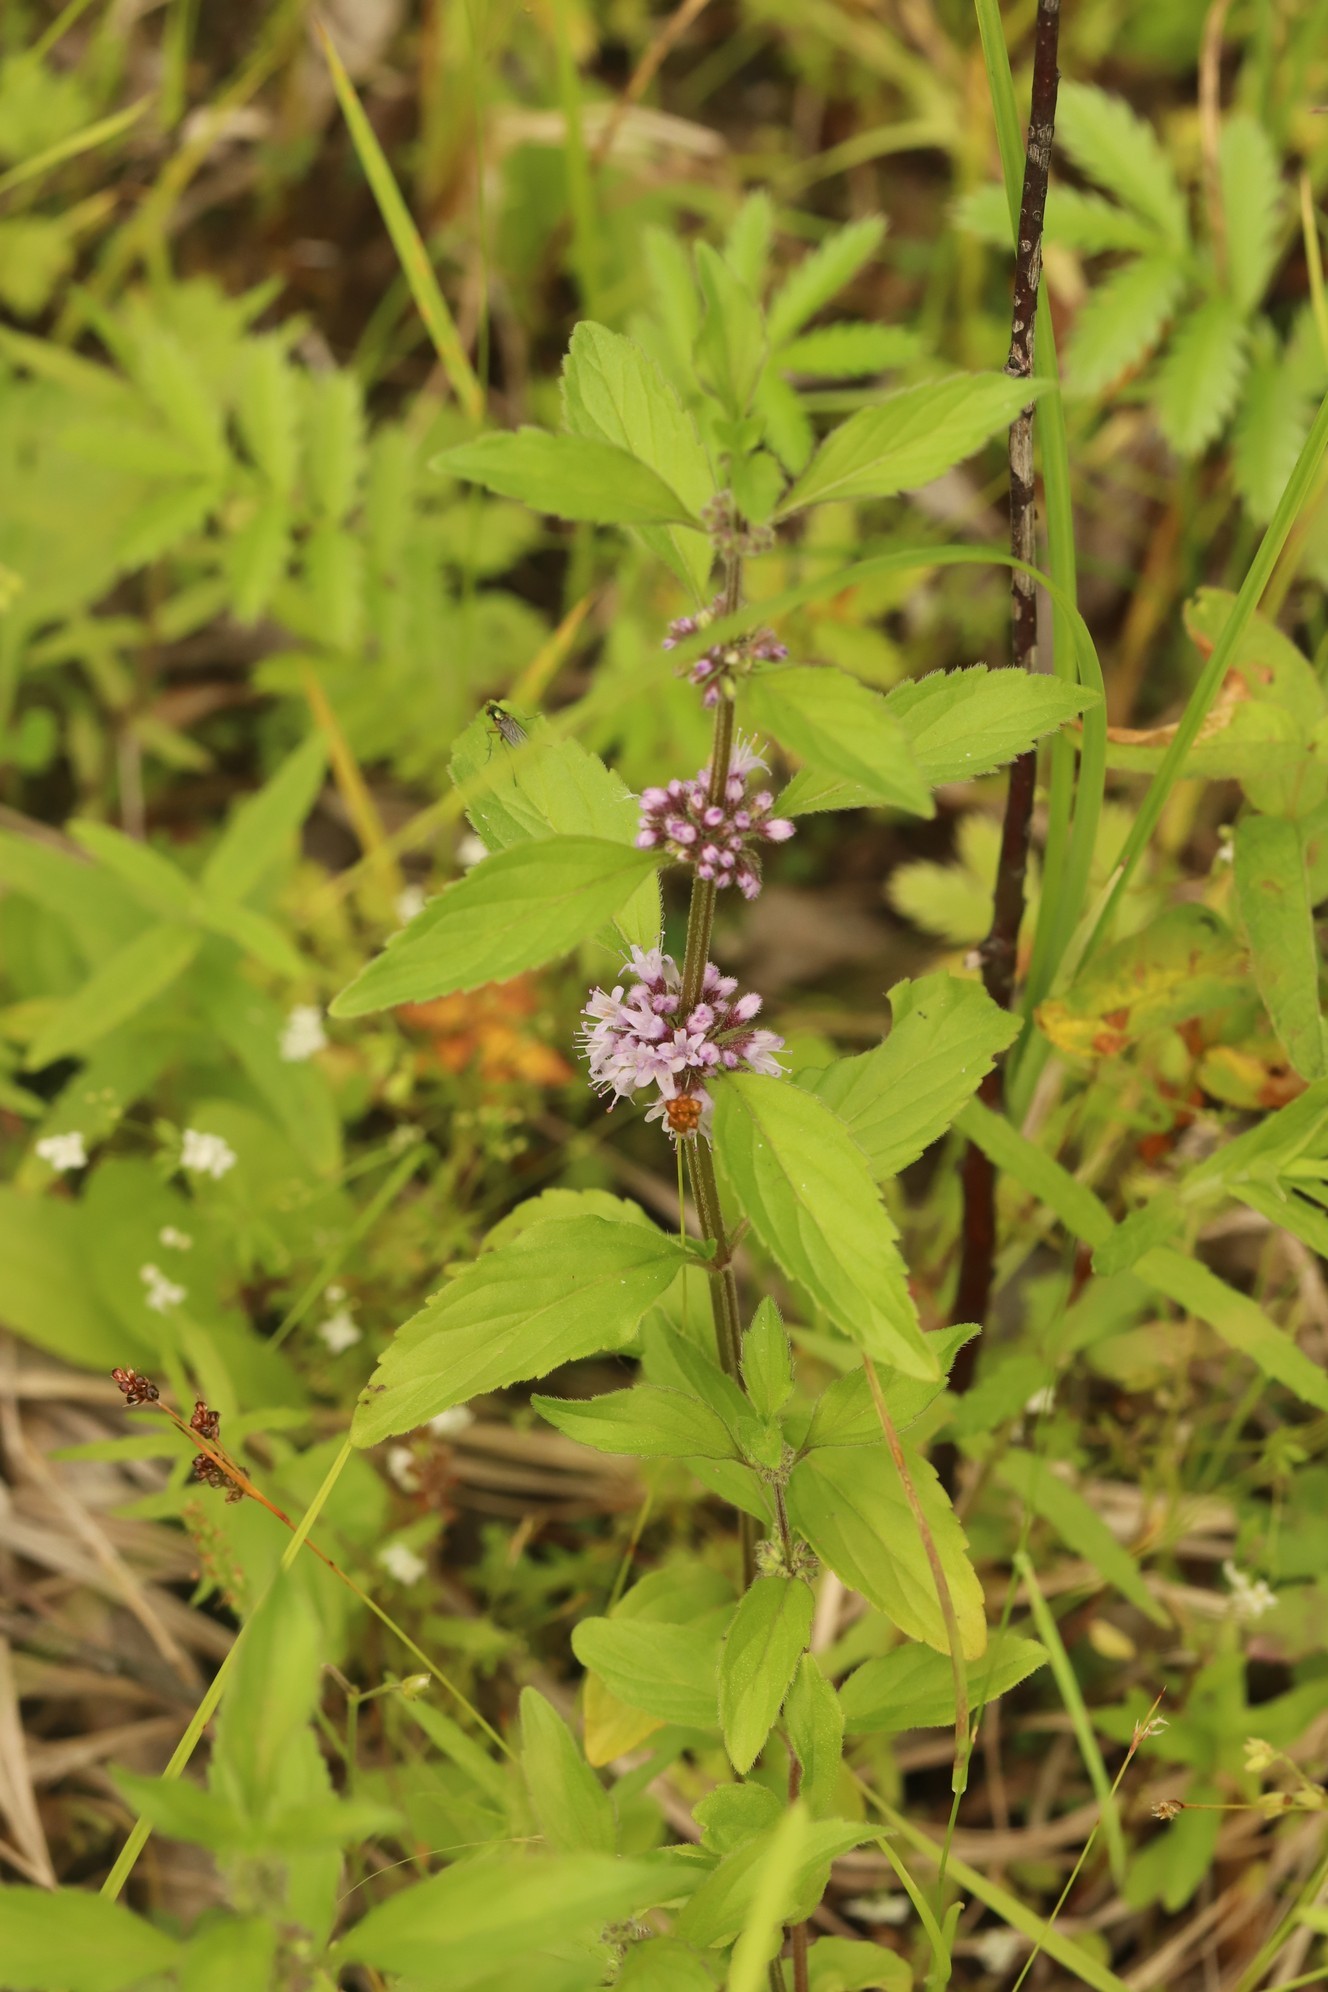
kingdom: Plantae
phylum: Tracheophyta
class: Magnoliopsida
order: Lamiales
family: Lamiaceae
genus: Mentha
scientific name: Mentha arvensis
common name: Corn mint
